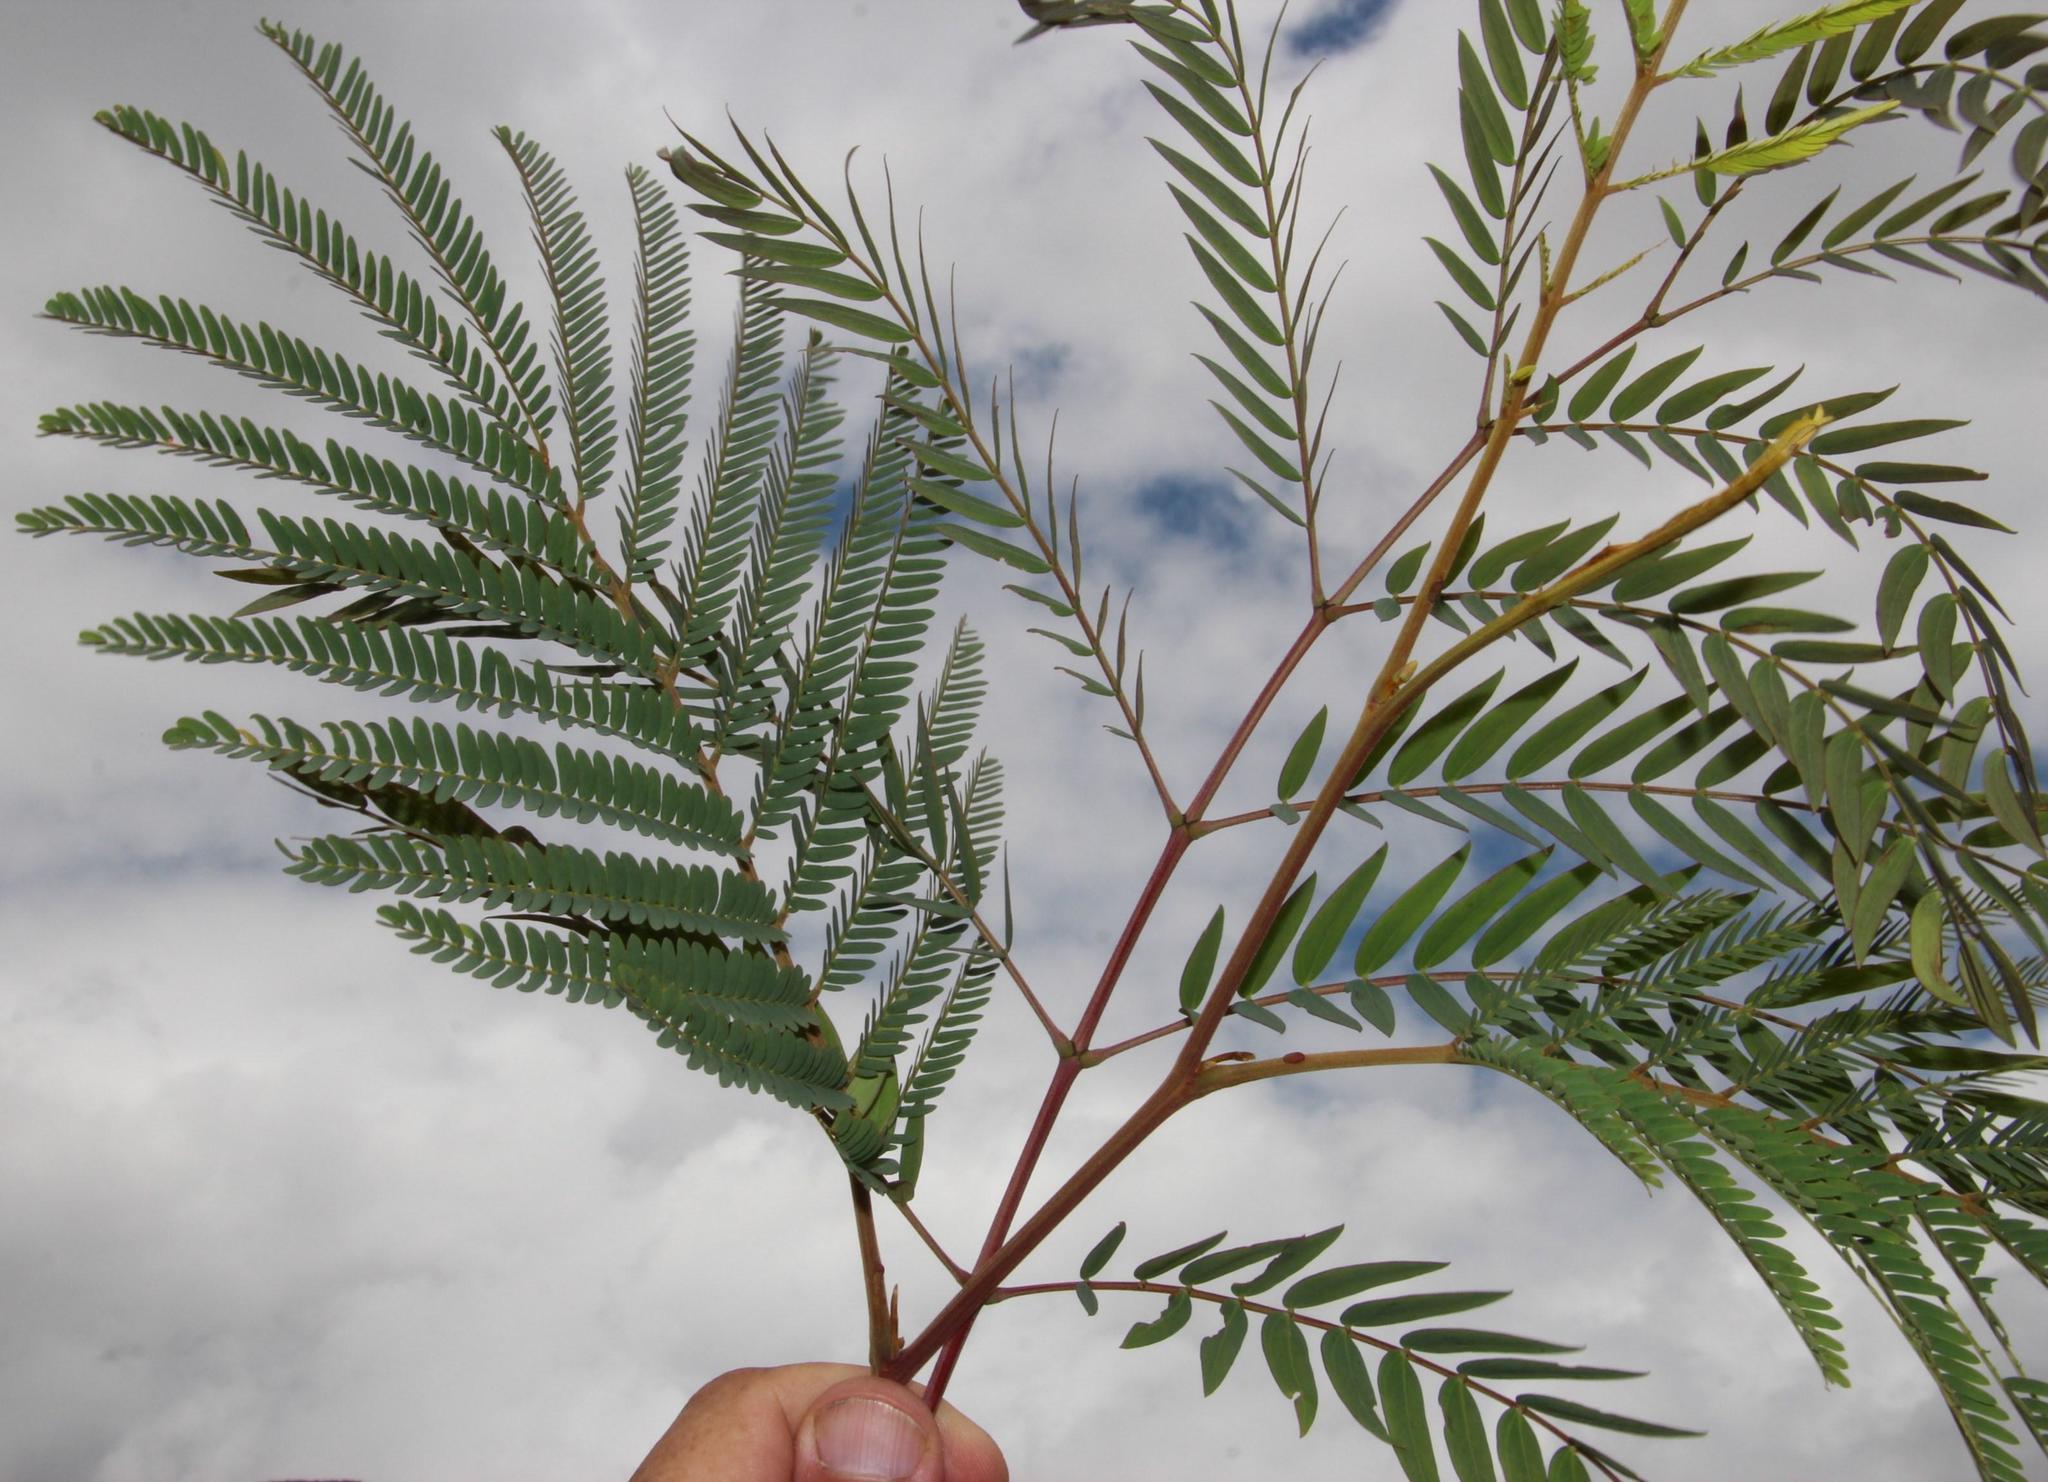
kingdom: Plantae
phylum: Tracheophyta
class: Magnoliopsida
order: Fabales
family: Fabaceae
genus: Acacia
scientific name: Acacia elata
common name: Cedar wattle
